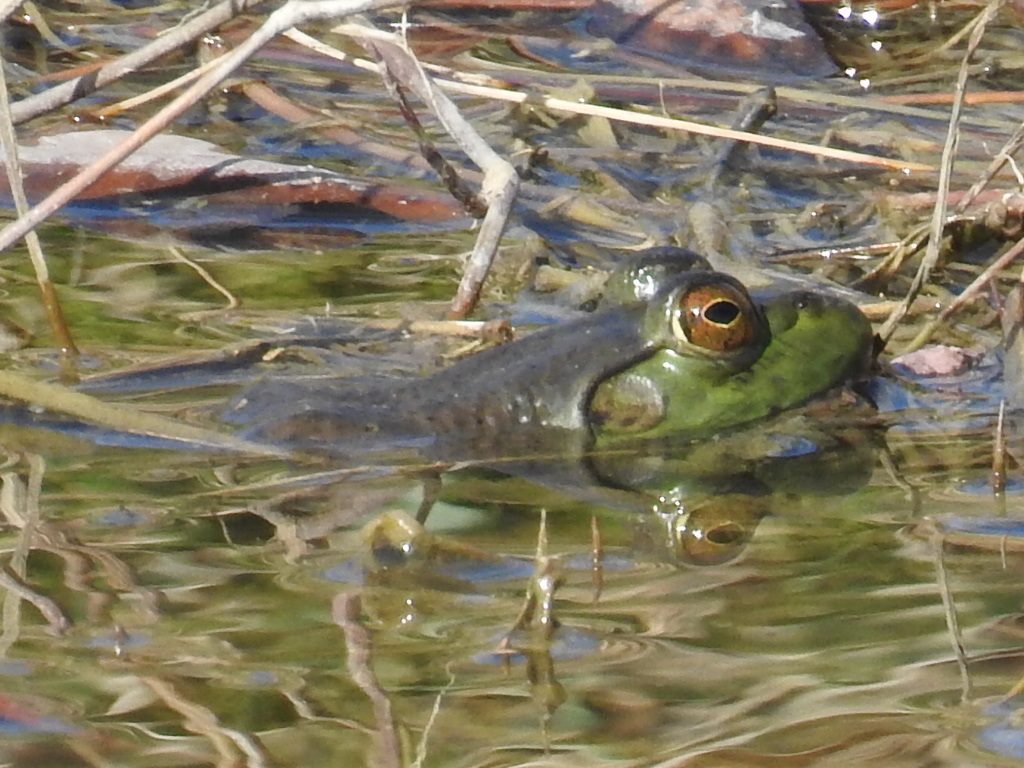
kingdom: Animalia
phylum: Chordata
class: Amphibia
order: Anura
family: Ranidae
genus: Lithobates
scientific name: Lithobates catesbeianus
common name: American bullfrog
